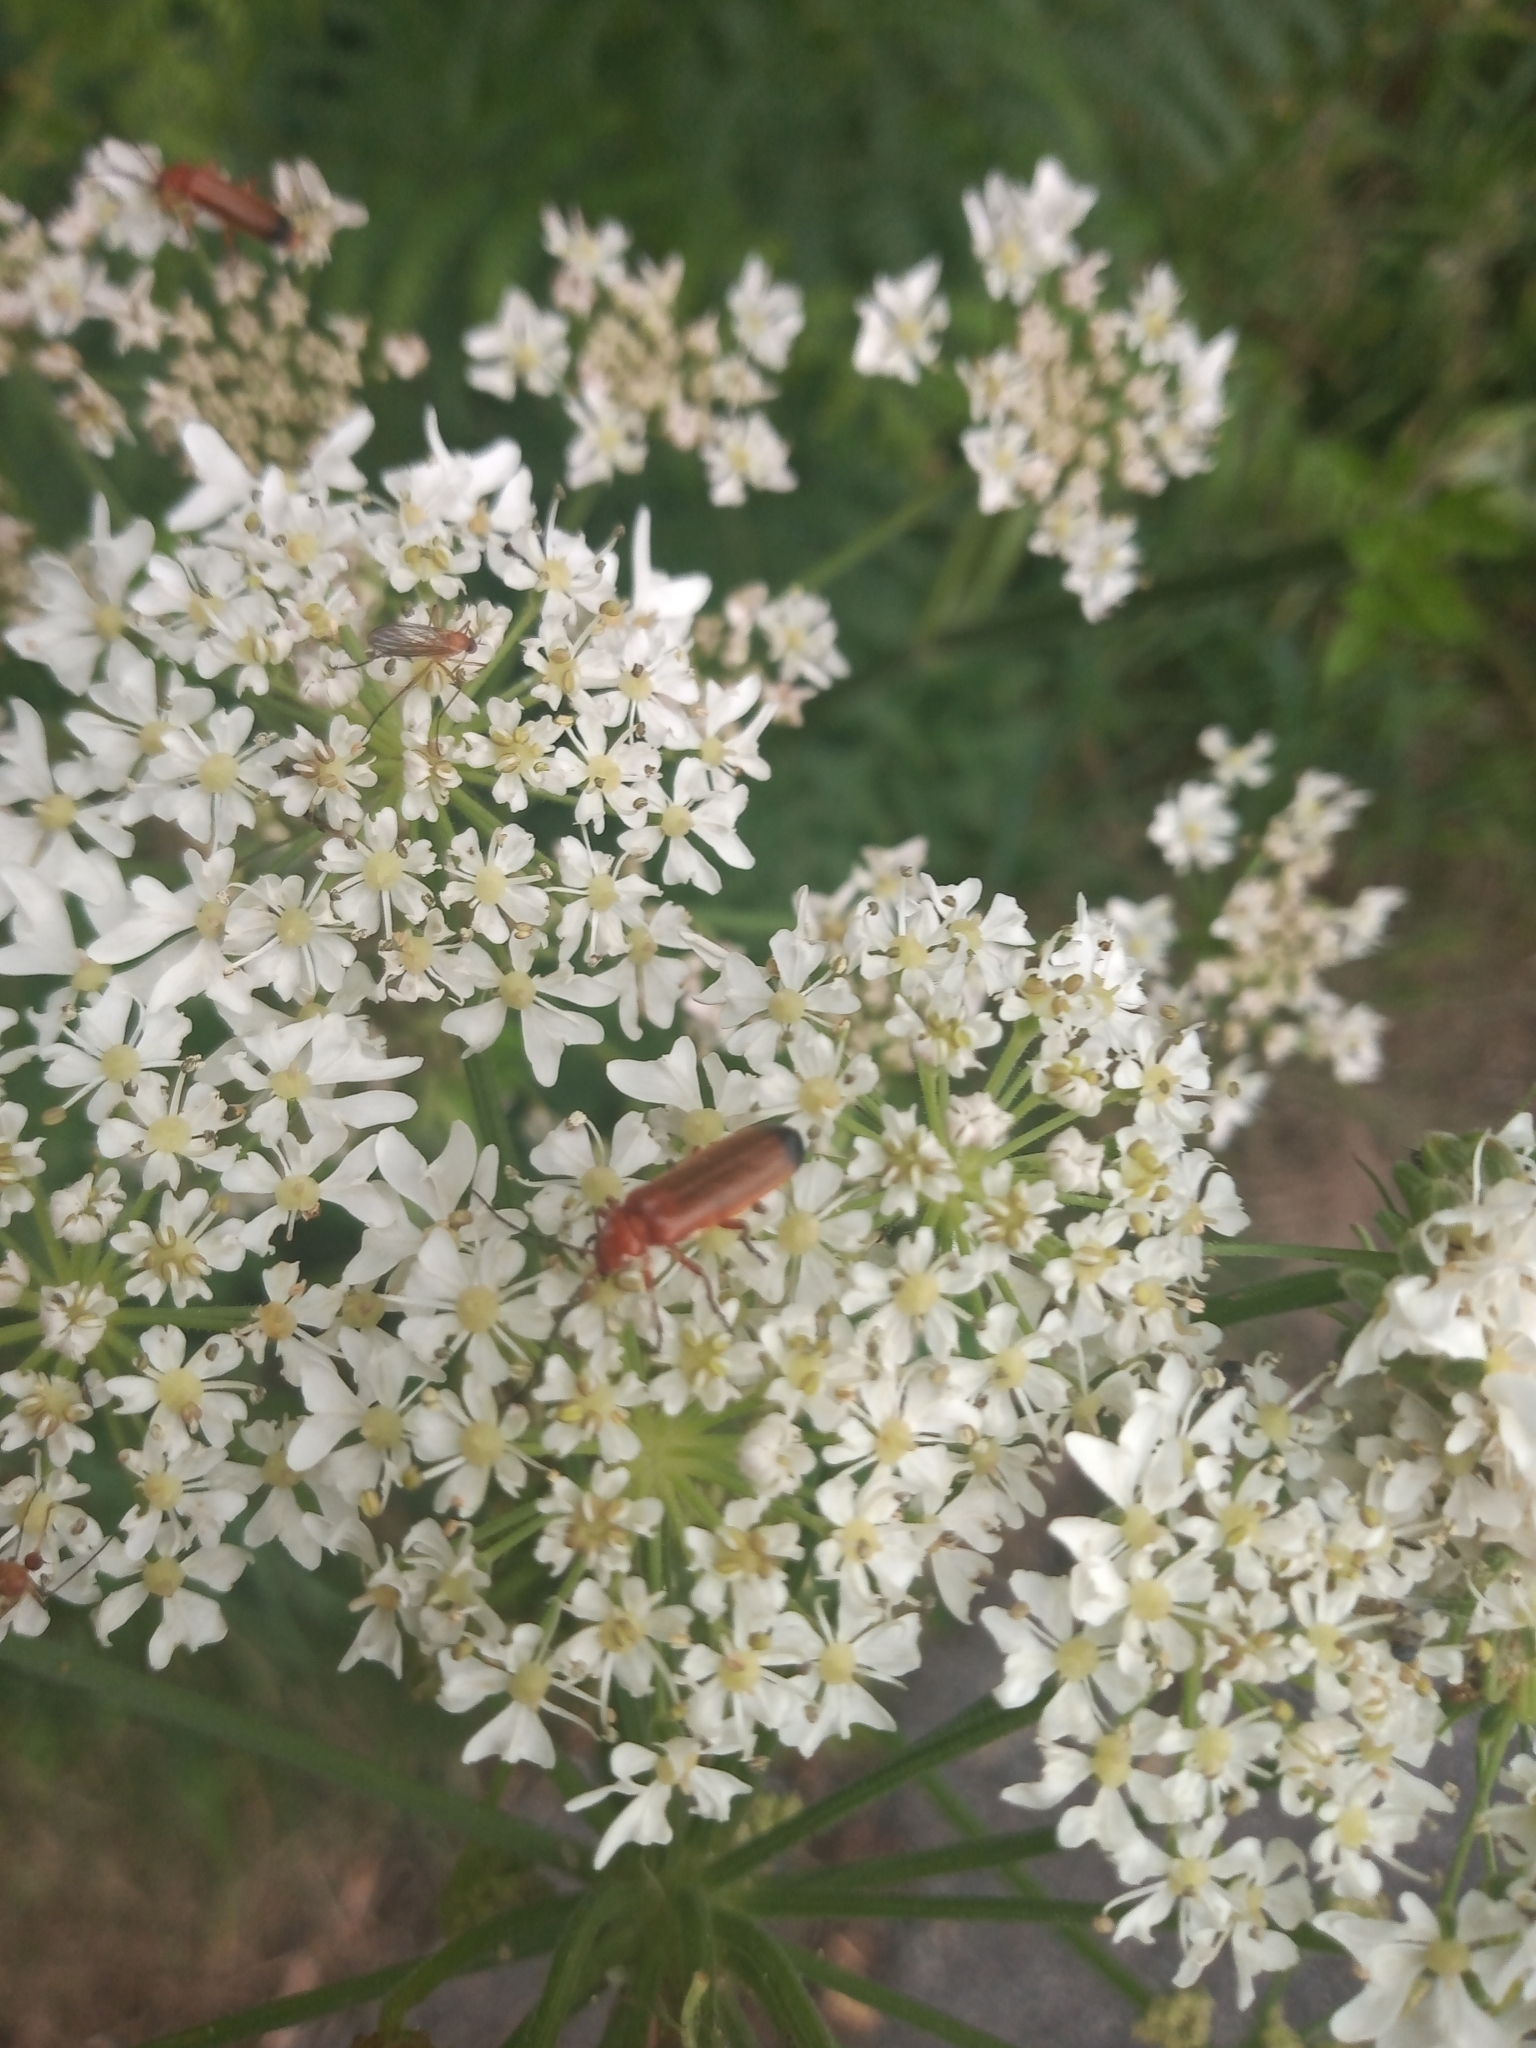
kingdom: Animalia
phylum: Arthropoda
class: Insecta
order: Coleoptera
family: Cantharidae
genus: Rhagonycha
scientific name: Rhagonycha fulva
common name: Common red soldier beetle
